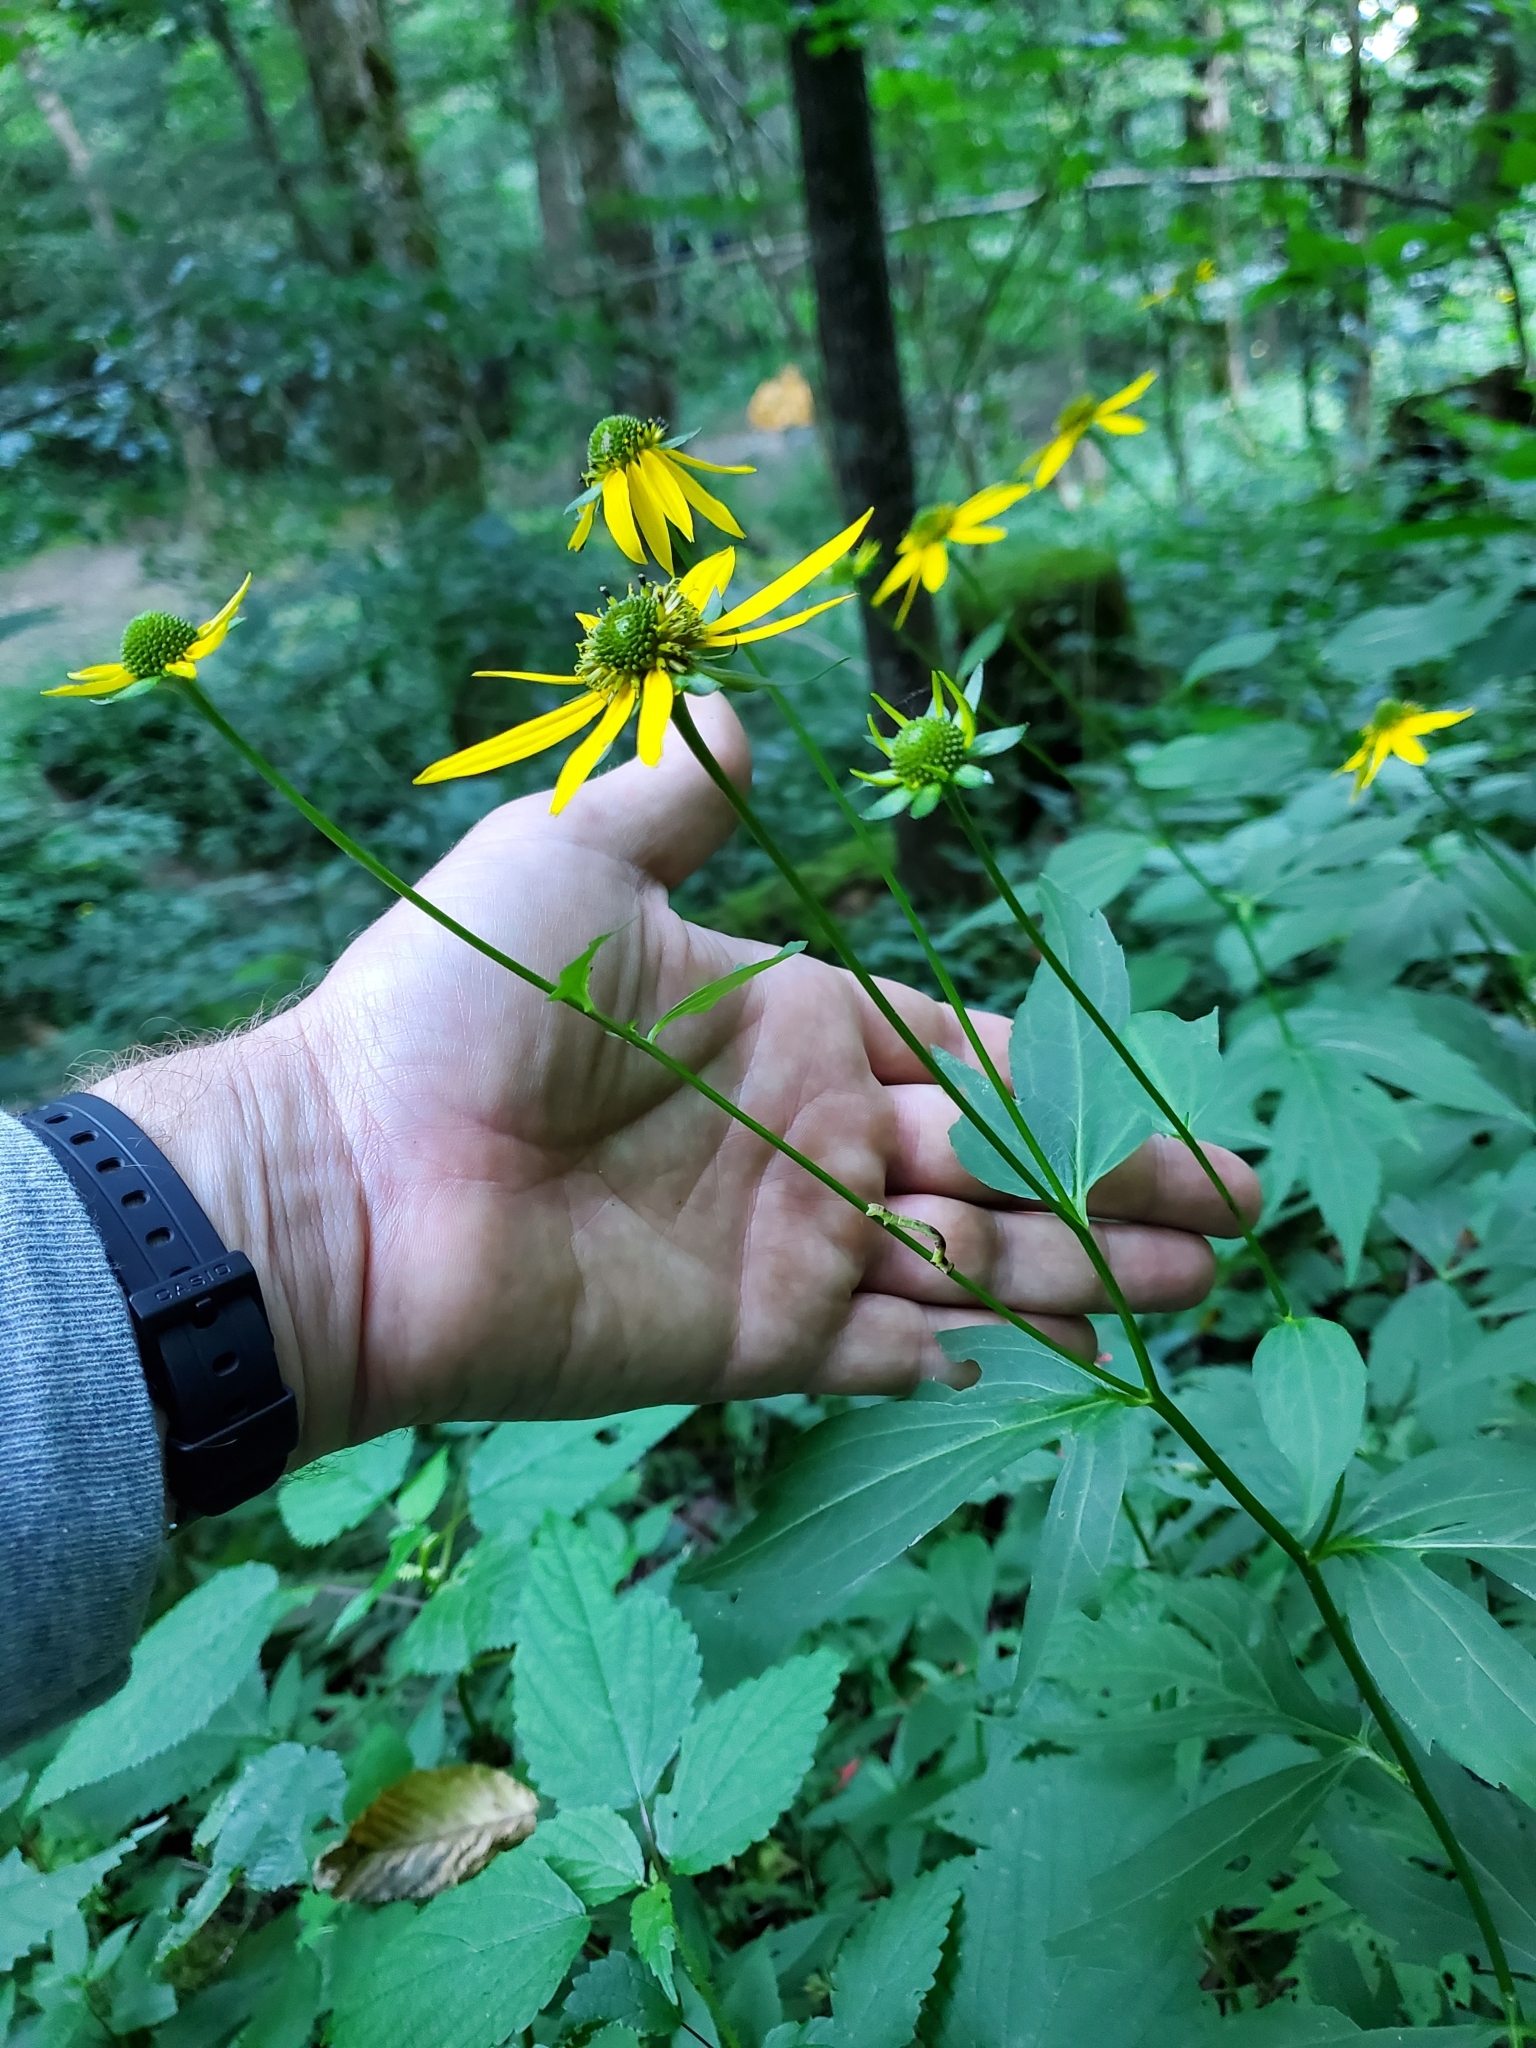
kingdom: Plantae
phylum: Tracheophyta
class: Magnoliopsida
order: Asterales
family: Asteraceae
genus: Rudbeckia
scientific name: Rudbeckia laciniata
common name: Coneflower
